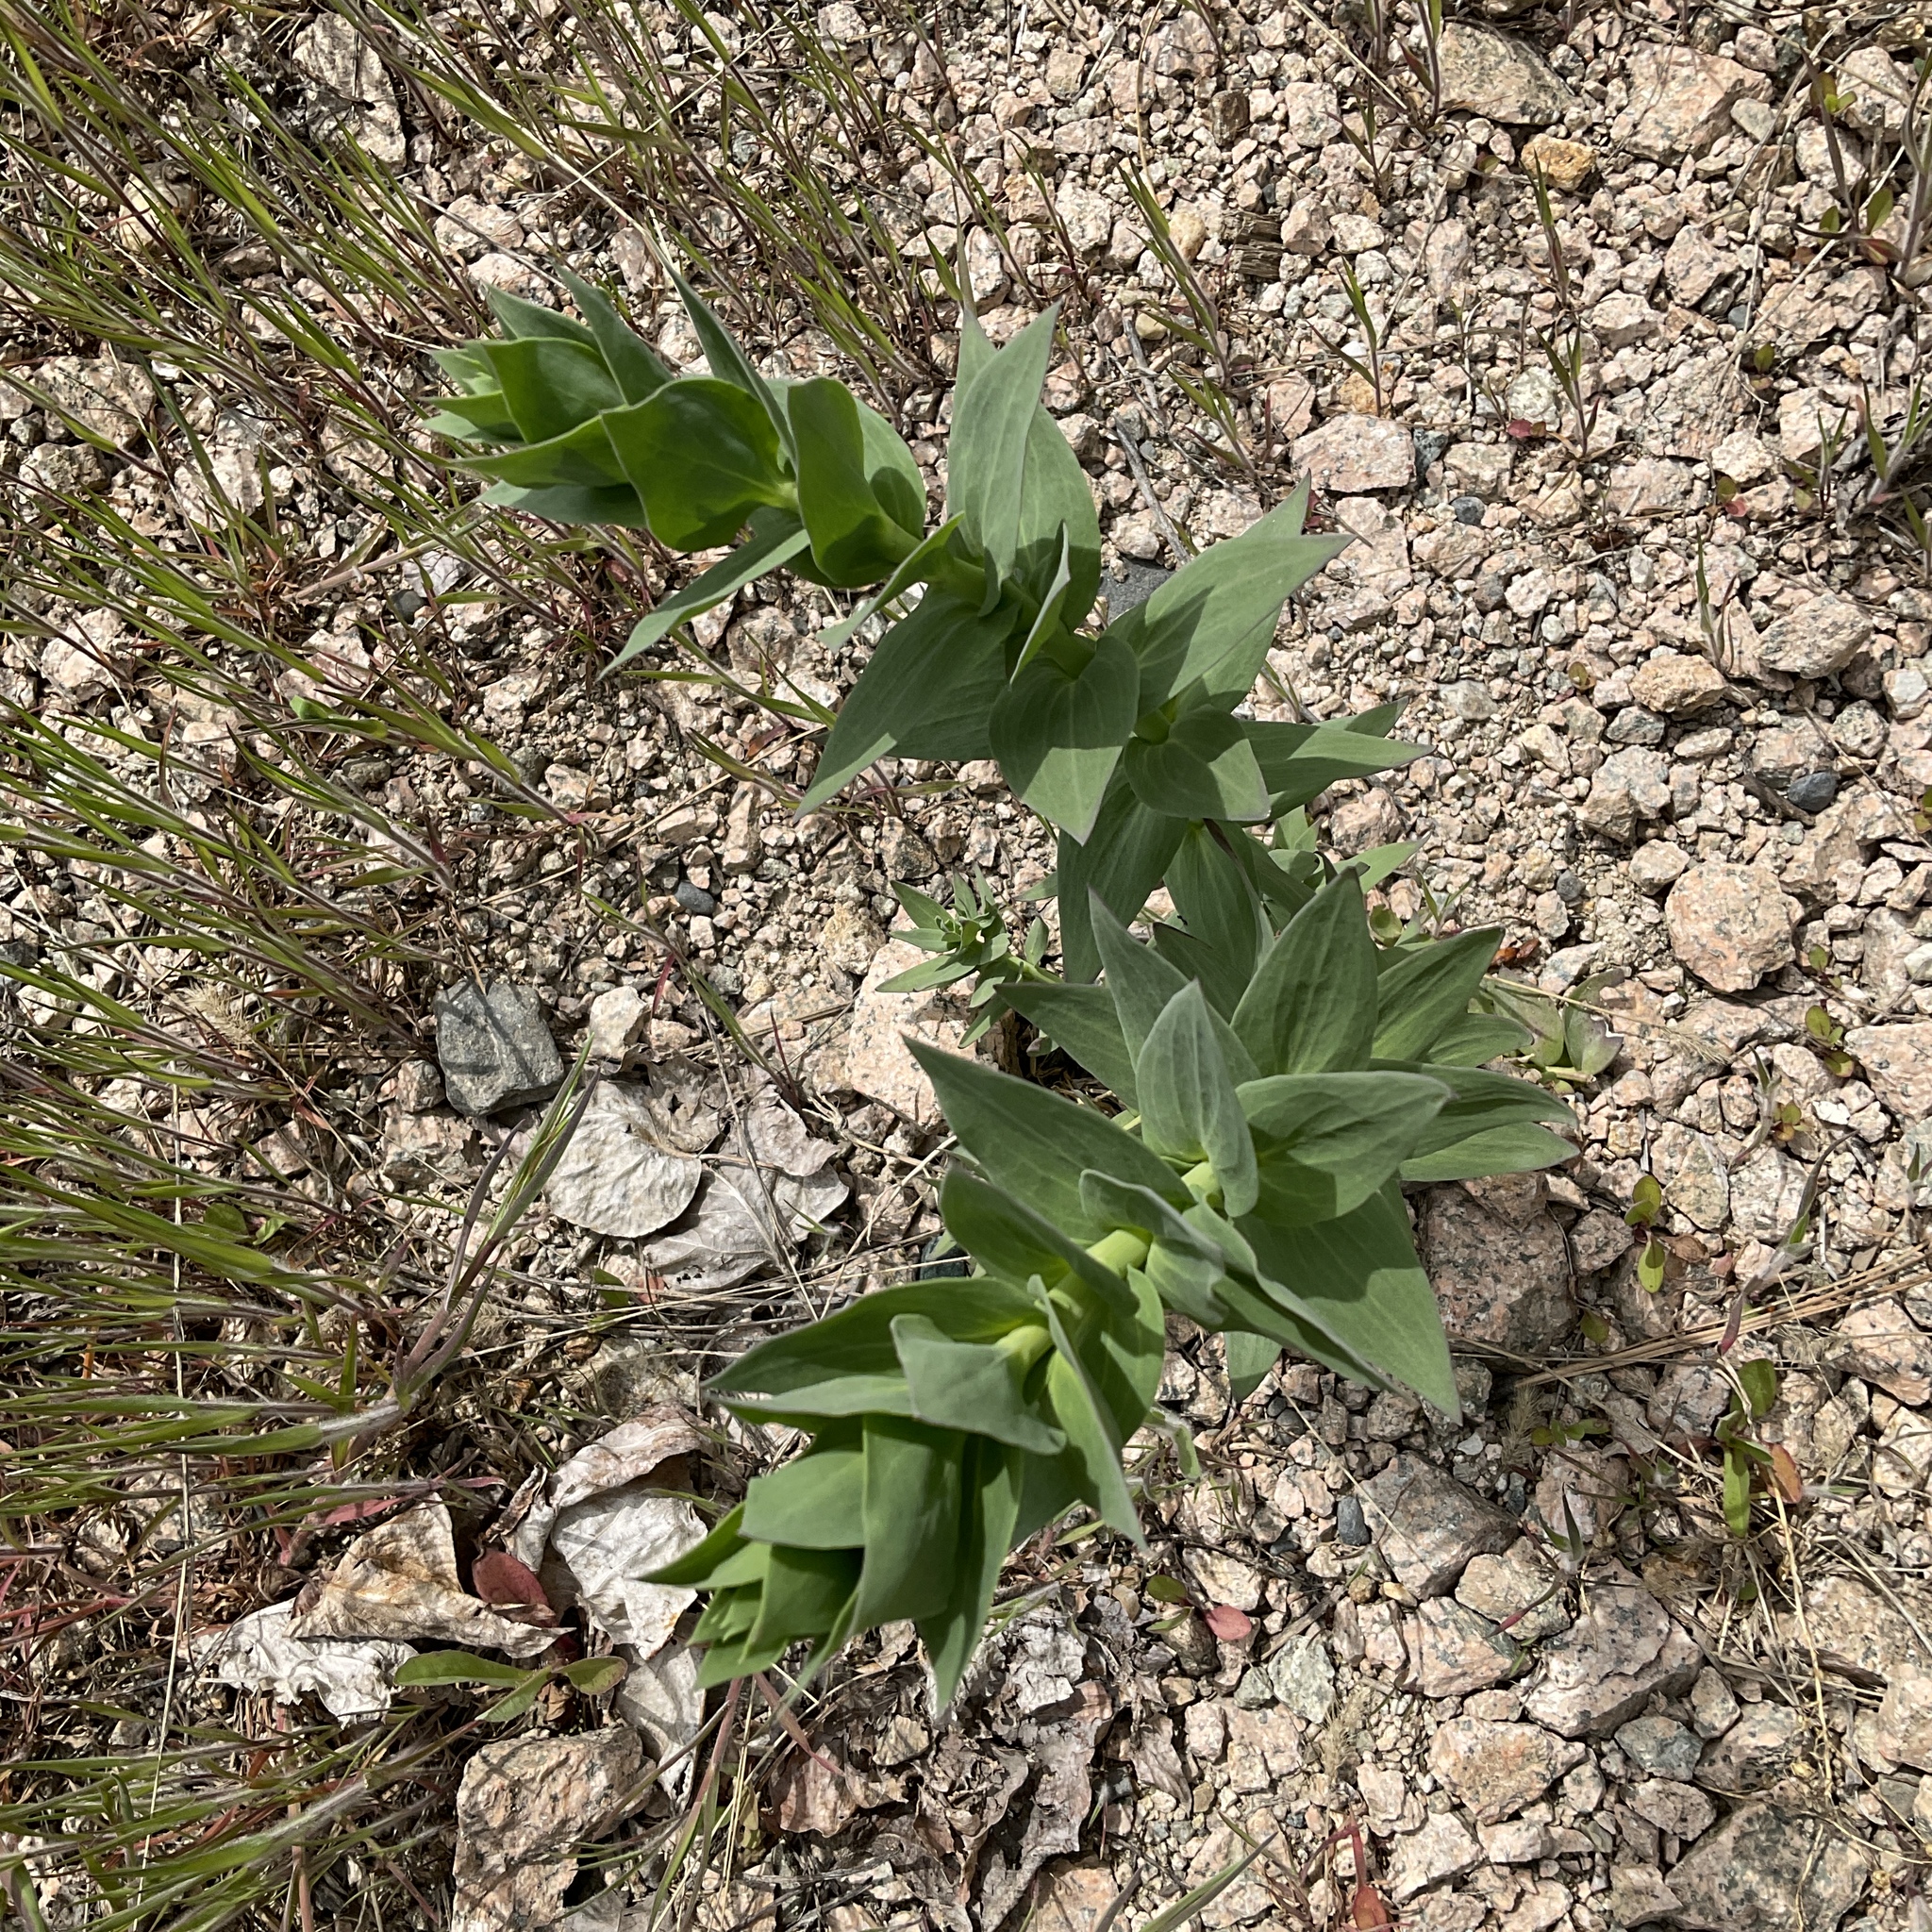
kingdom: Plantae
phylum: Tracheophyta
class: Magnoliopsida
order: Lamiales
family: Plantaginaceae
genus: Linaria
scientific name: Linaria dalmatica
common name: Dalmatian toadflax
